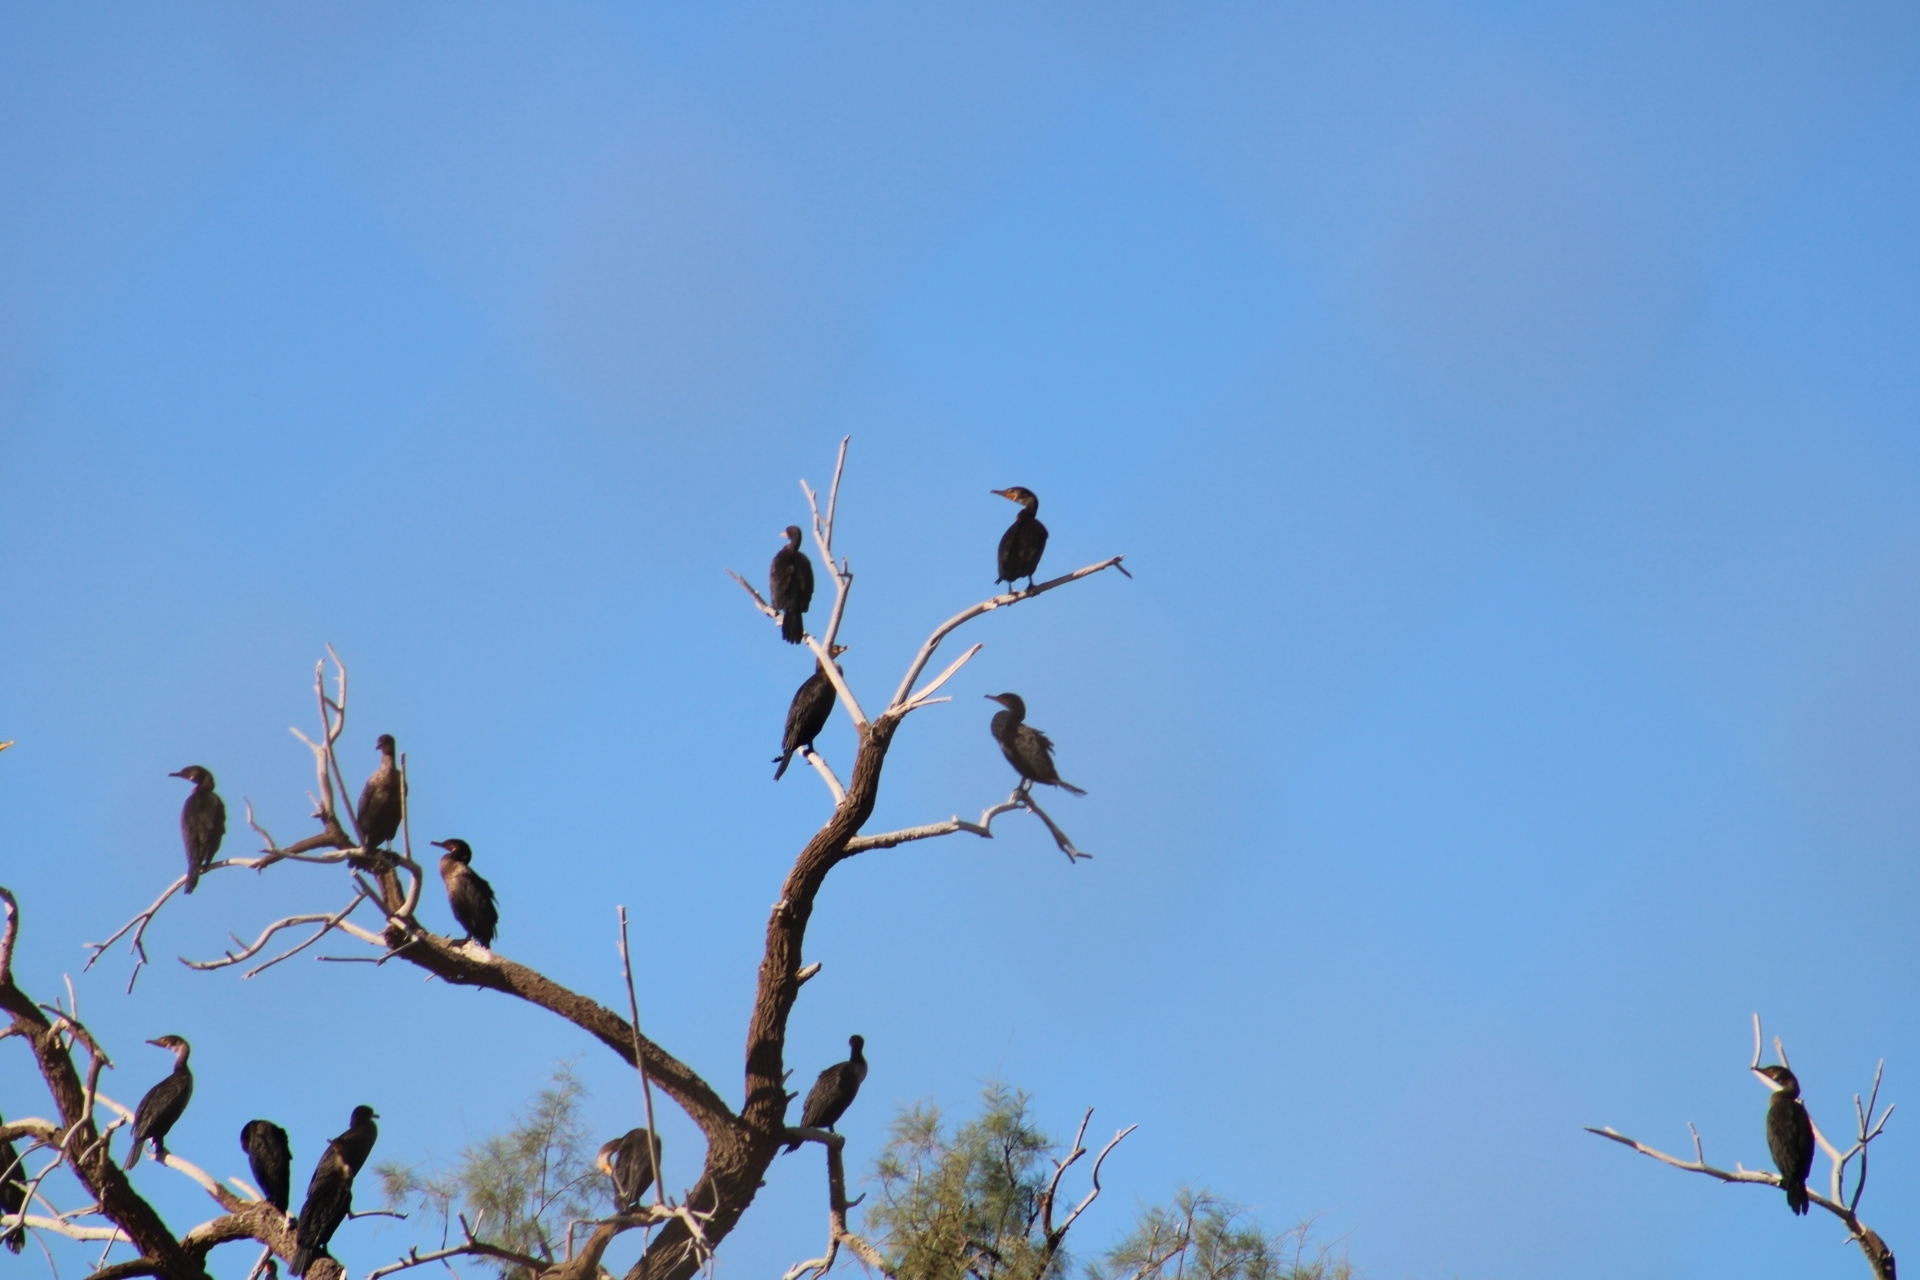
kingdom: Animalia
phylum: Chordata
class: Aves
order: Suliformes
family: Phalacrocoracidae
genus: Phalacrocorax
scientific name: Phalacrocorax auritus
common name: Double-crested cormorant
